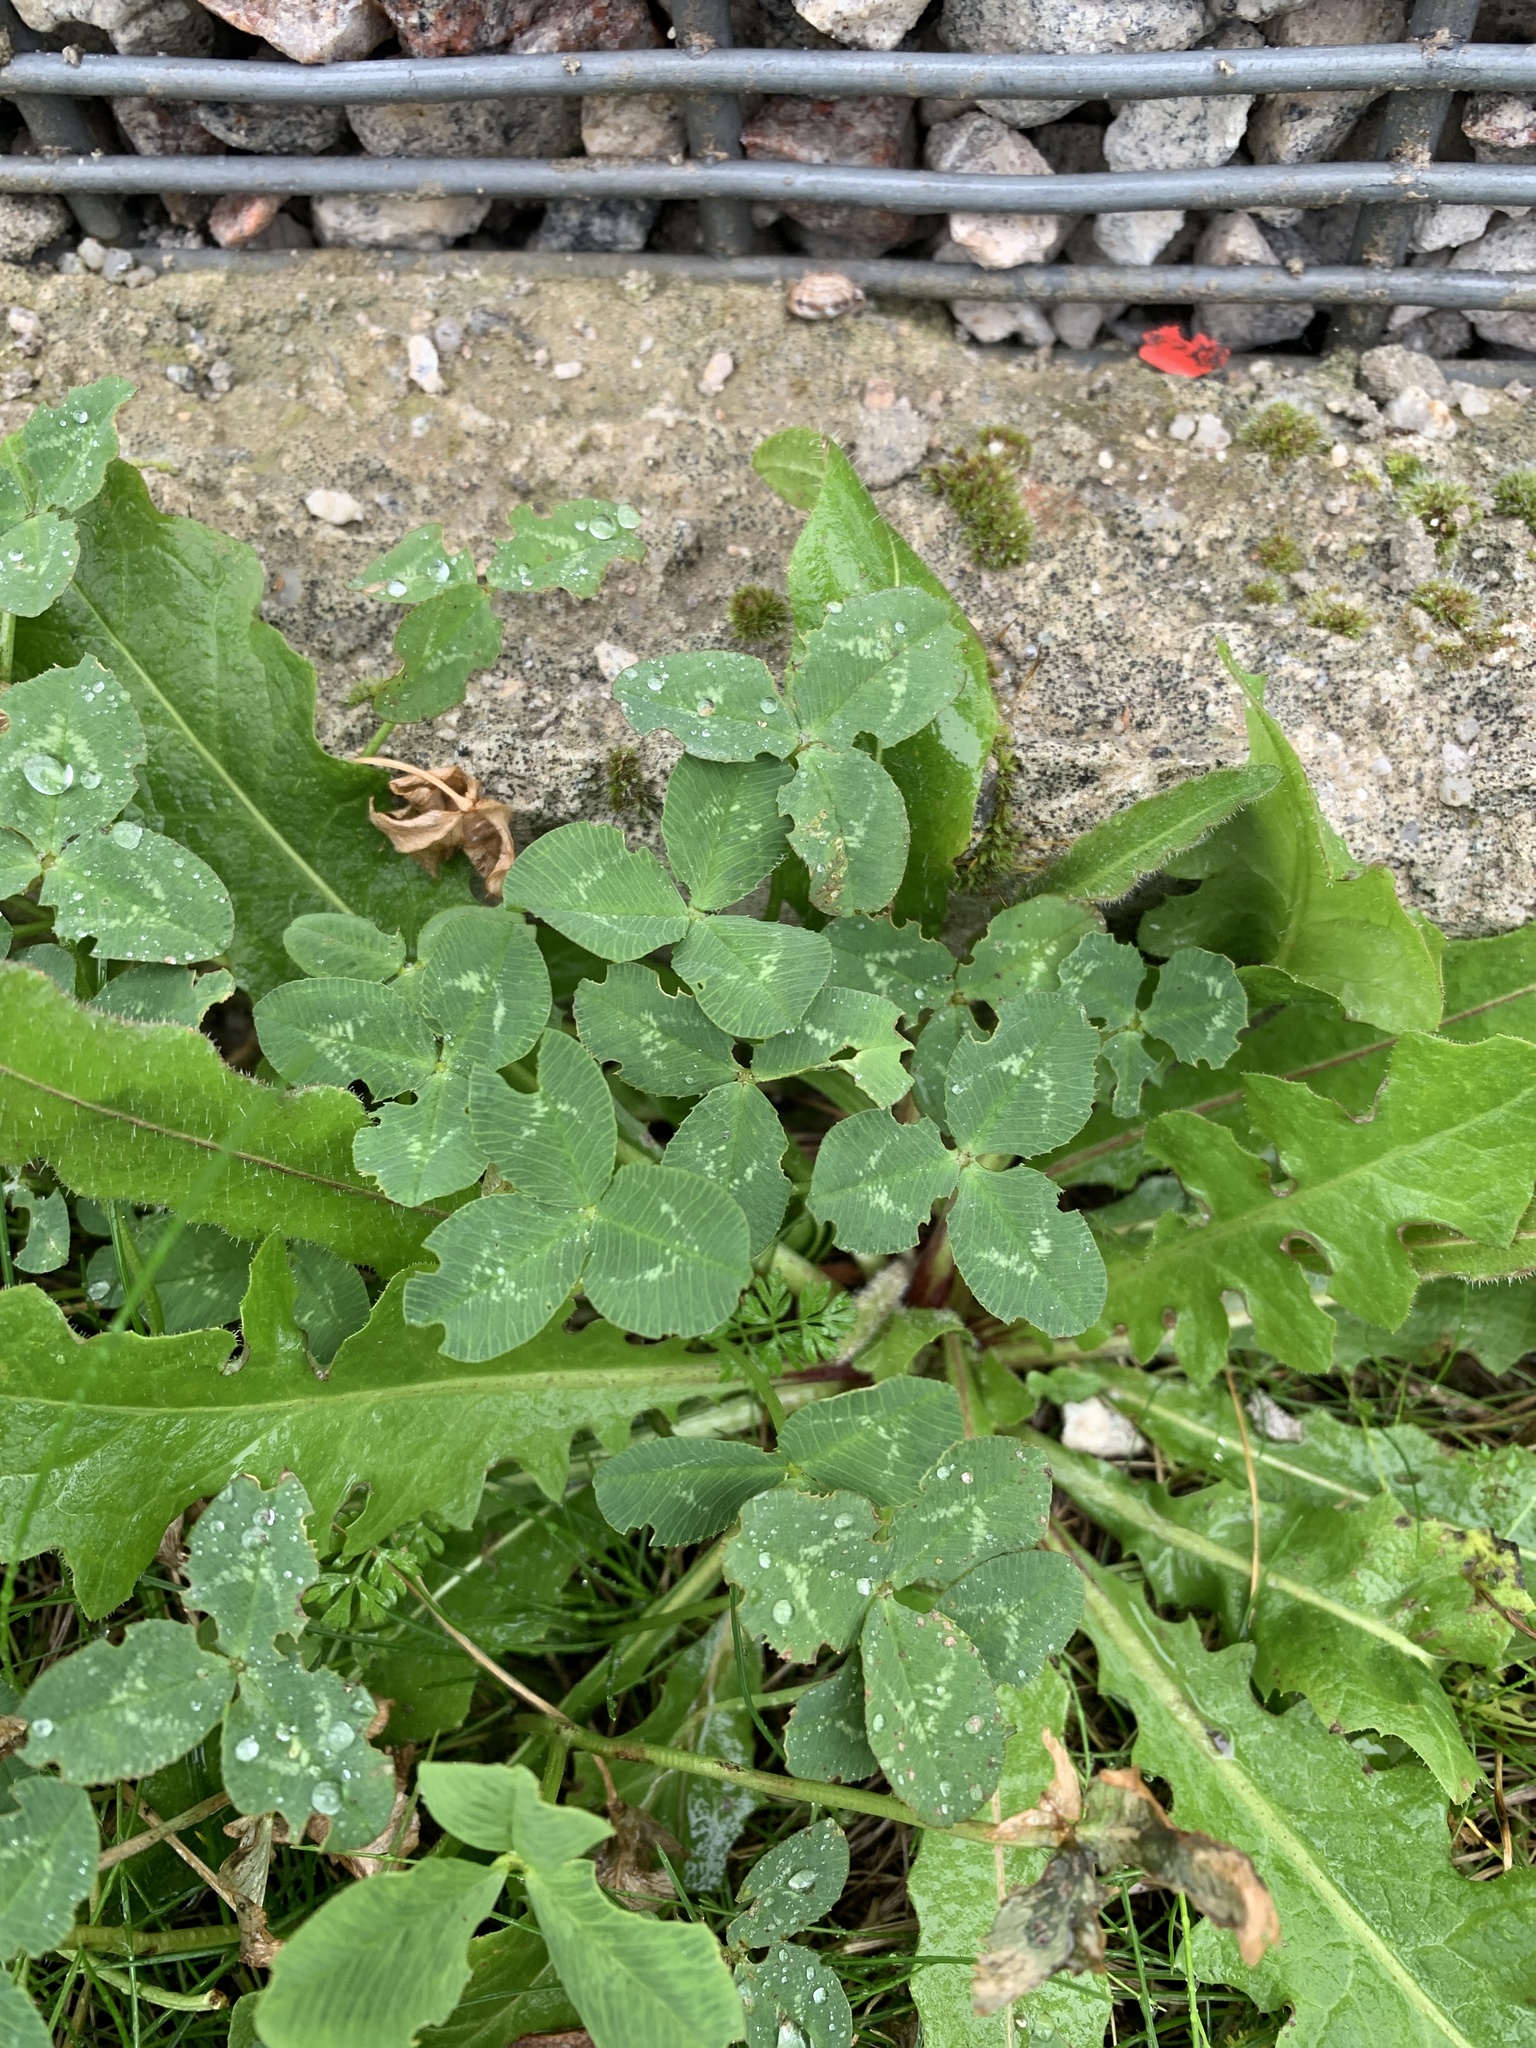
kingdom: Plantae
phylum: Tracheophyta
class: Magnoliopsida
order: Fabales
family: Fabaceae
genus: Trifolium
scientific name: Trifolium repens
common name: White clover
